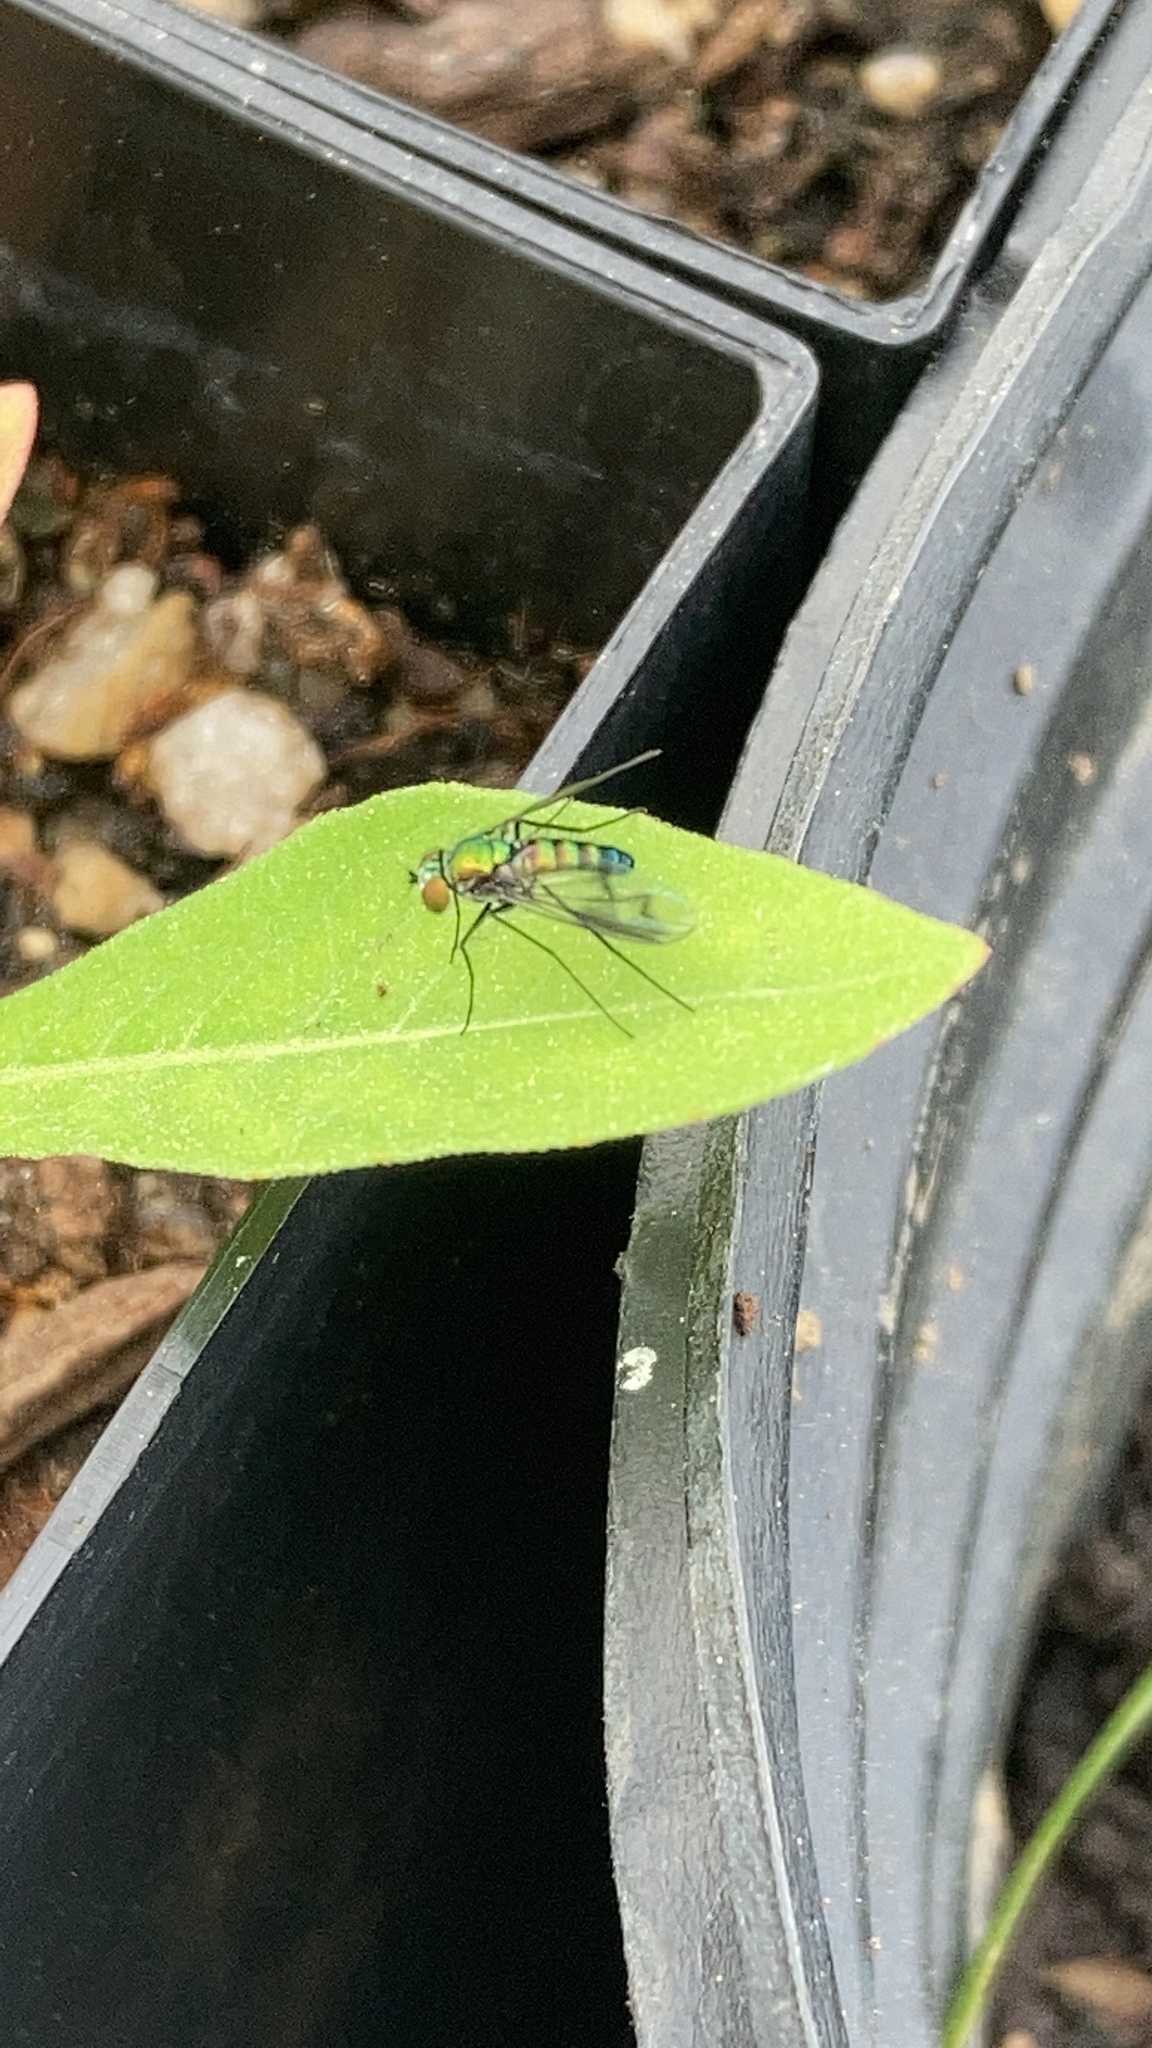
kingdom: Animalia
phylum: Arthropoda
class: Insecta
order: Diptera
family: Dolichopodidae
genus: Condylostylus
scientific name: Condylostylus patibulatus
